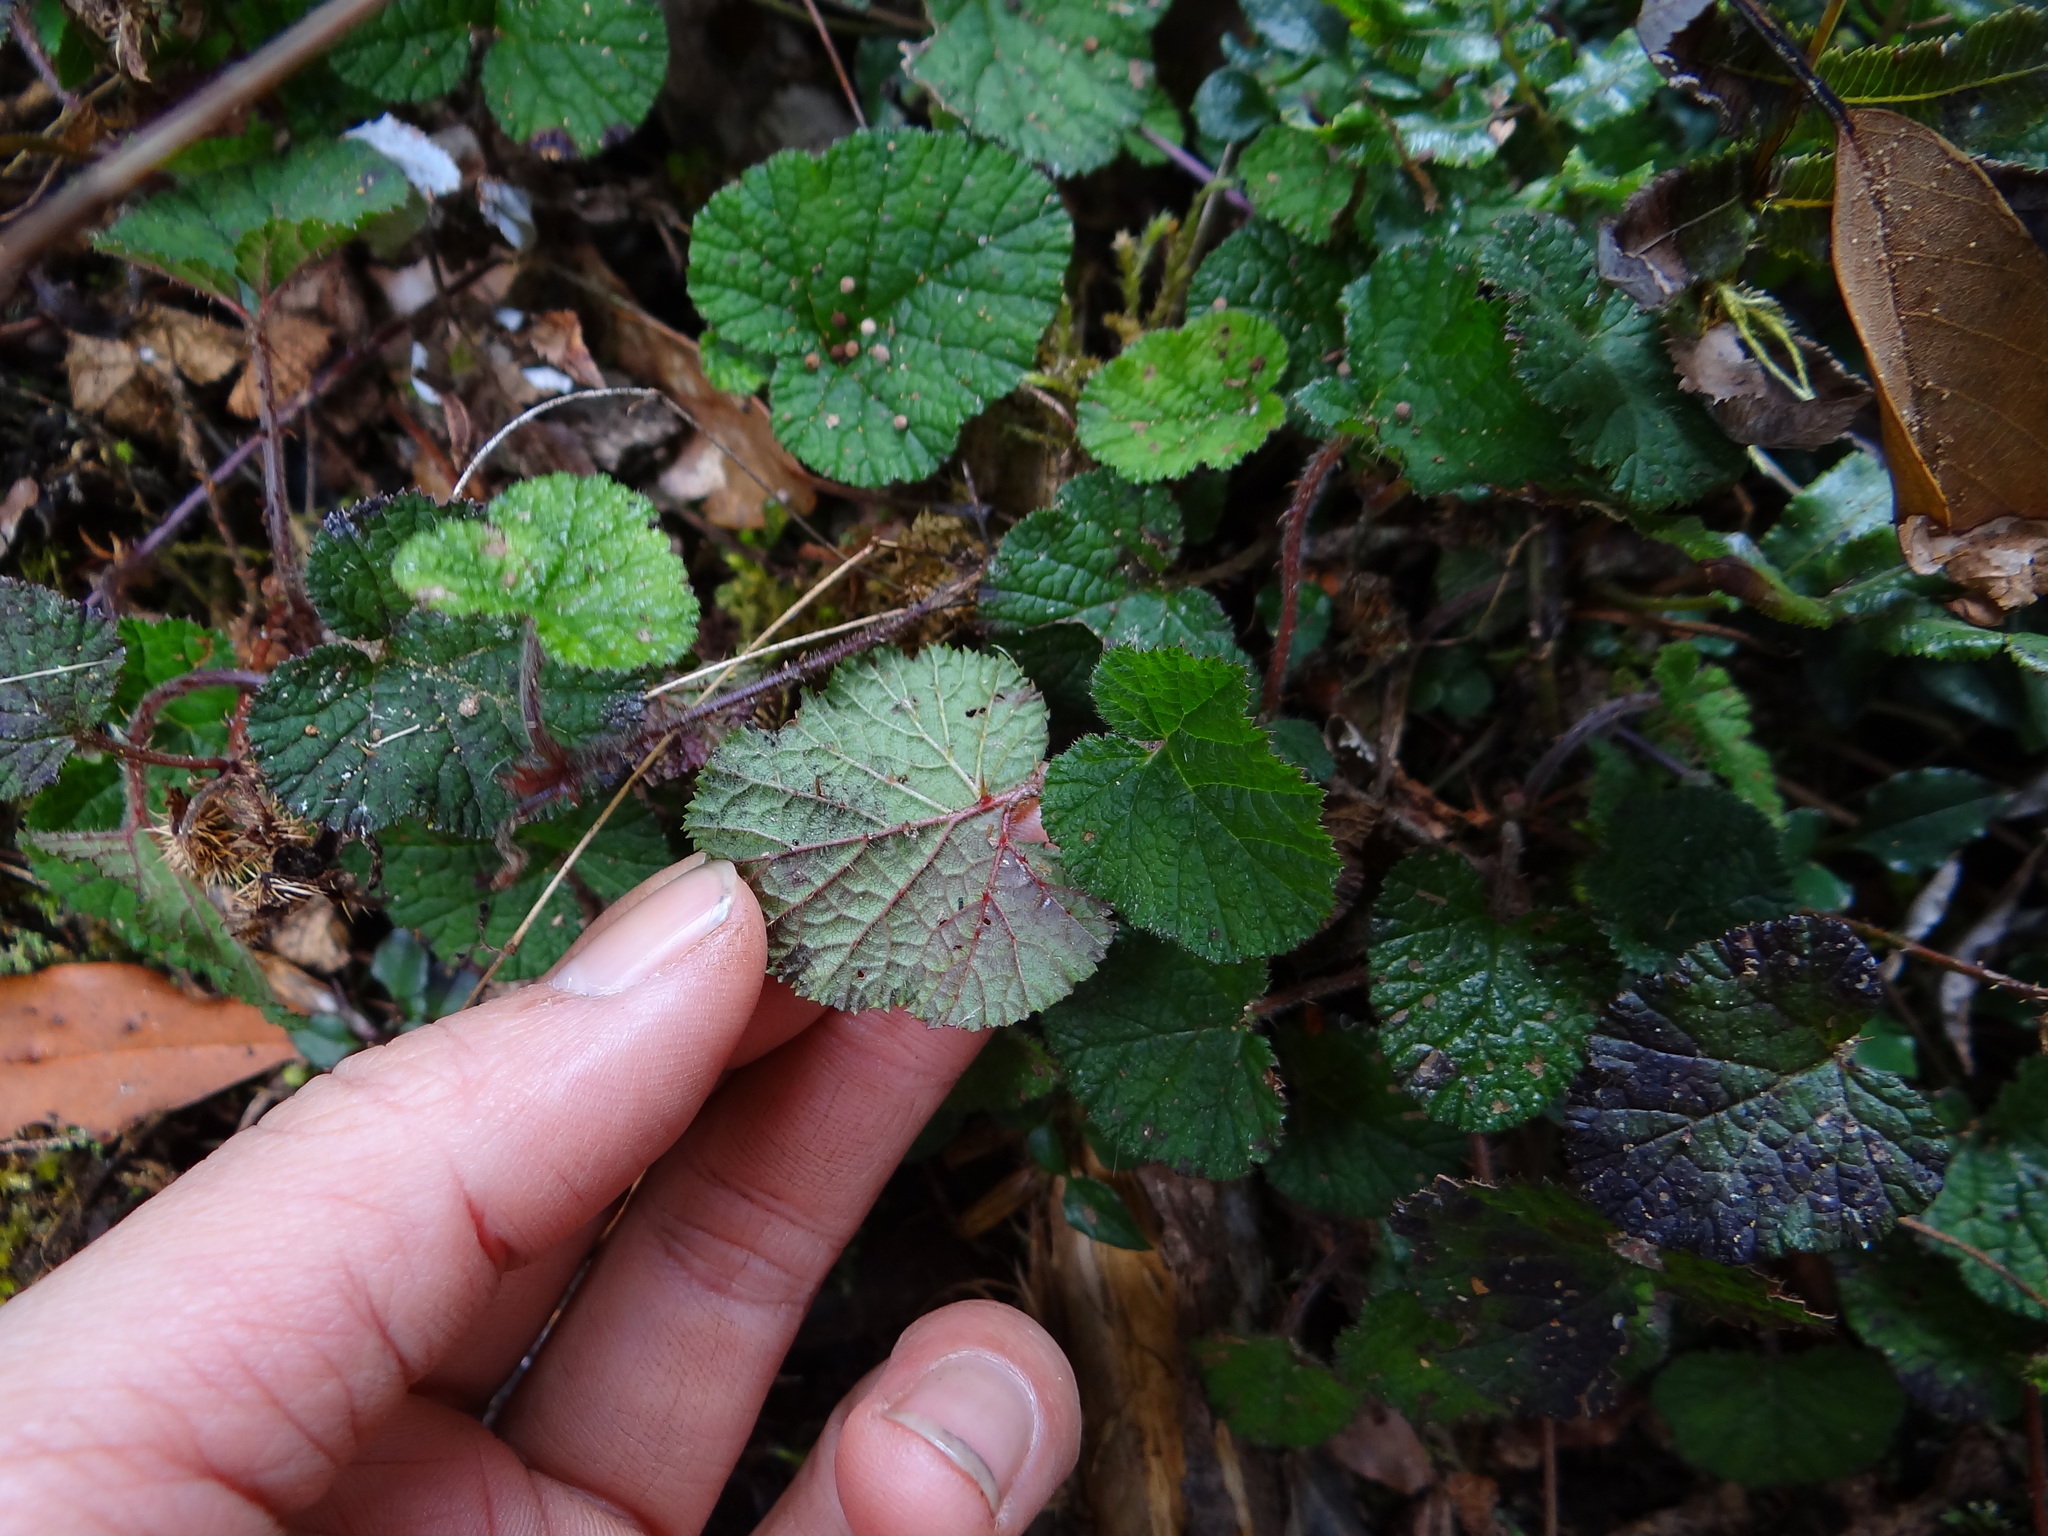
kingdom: Plantae
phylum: Tracheophyta
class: Magnoliopsida
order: Rosales
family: Rosaceae
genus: Rubus
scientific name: Rubus pectinellus
